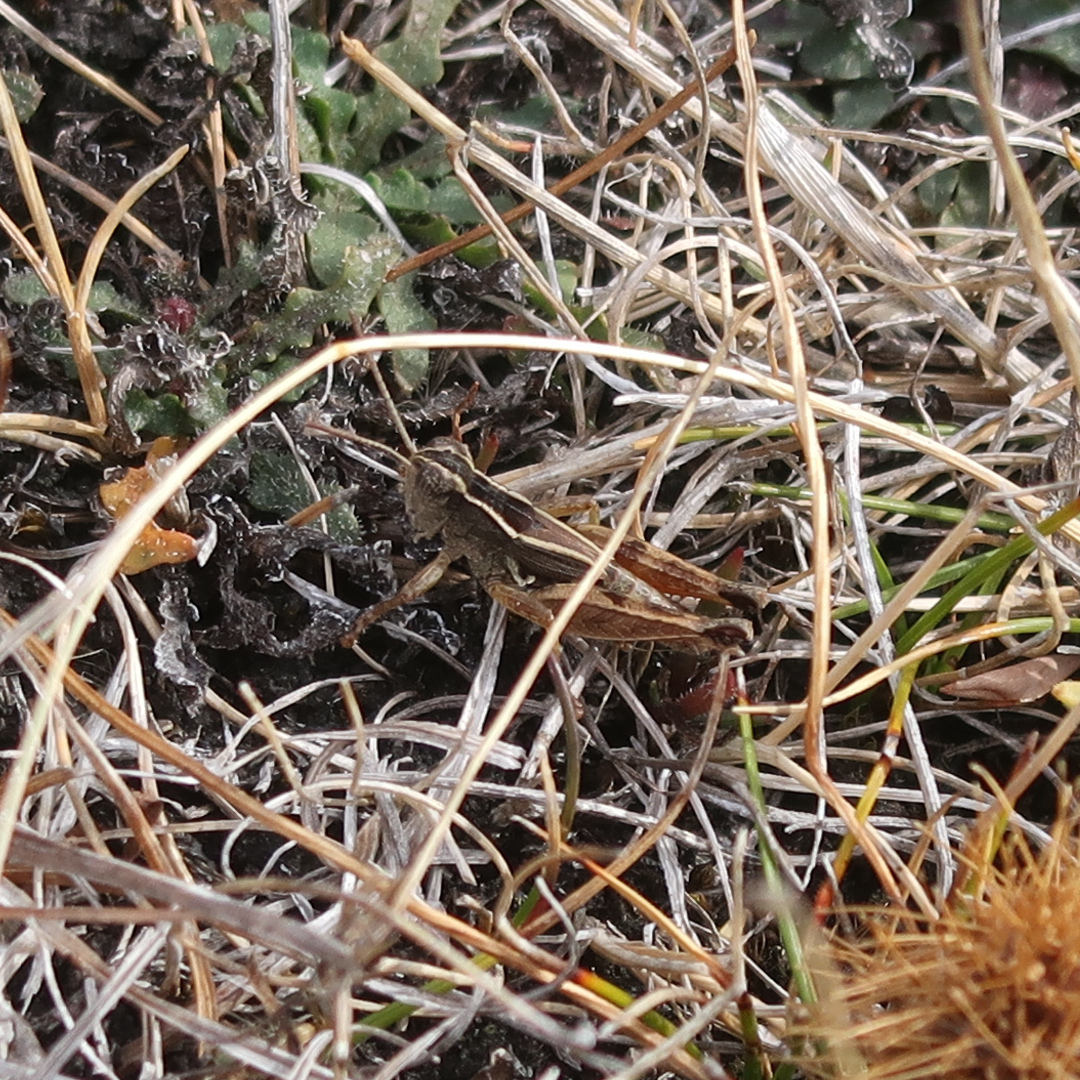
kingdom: Animalia
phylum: Arthropoda
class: Insecta
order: Orthoptera
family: Acrididae
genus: Phaulacridium
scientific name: Phaulacridium vittatum
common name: Wingless grasshopper
